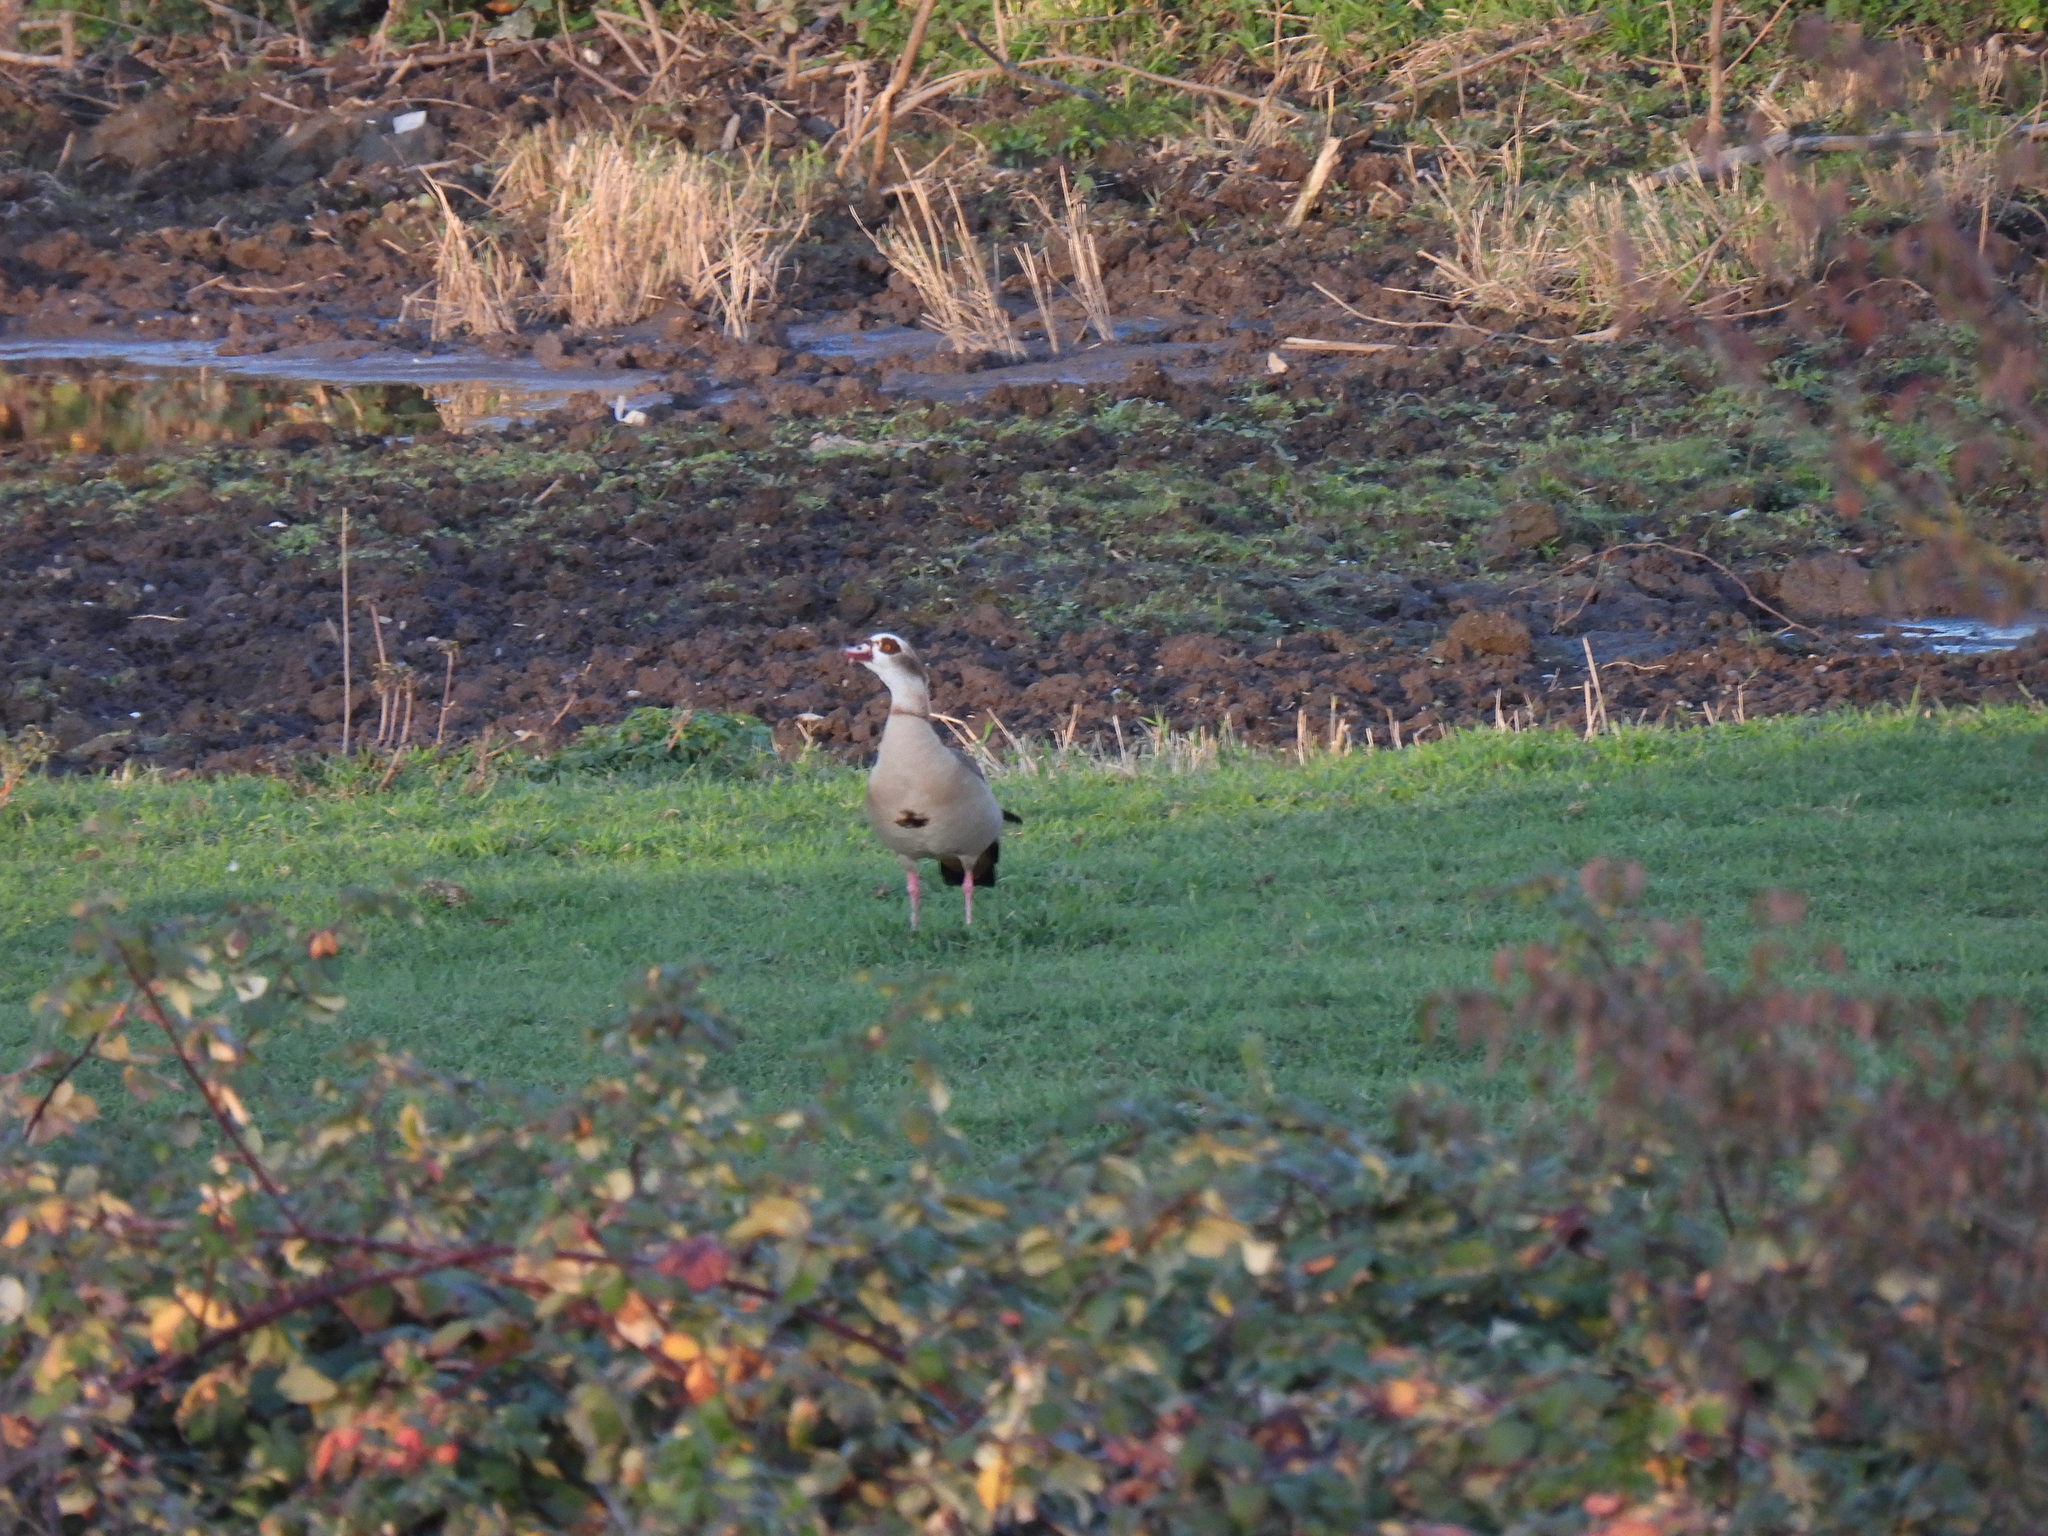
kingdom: Animalia
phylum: Chordata
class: Aves
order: Anseriformes
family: Anatidae
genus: Alopochen
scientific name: Alopochen aegyptiaca
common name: Egyptian goose
